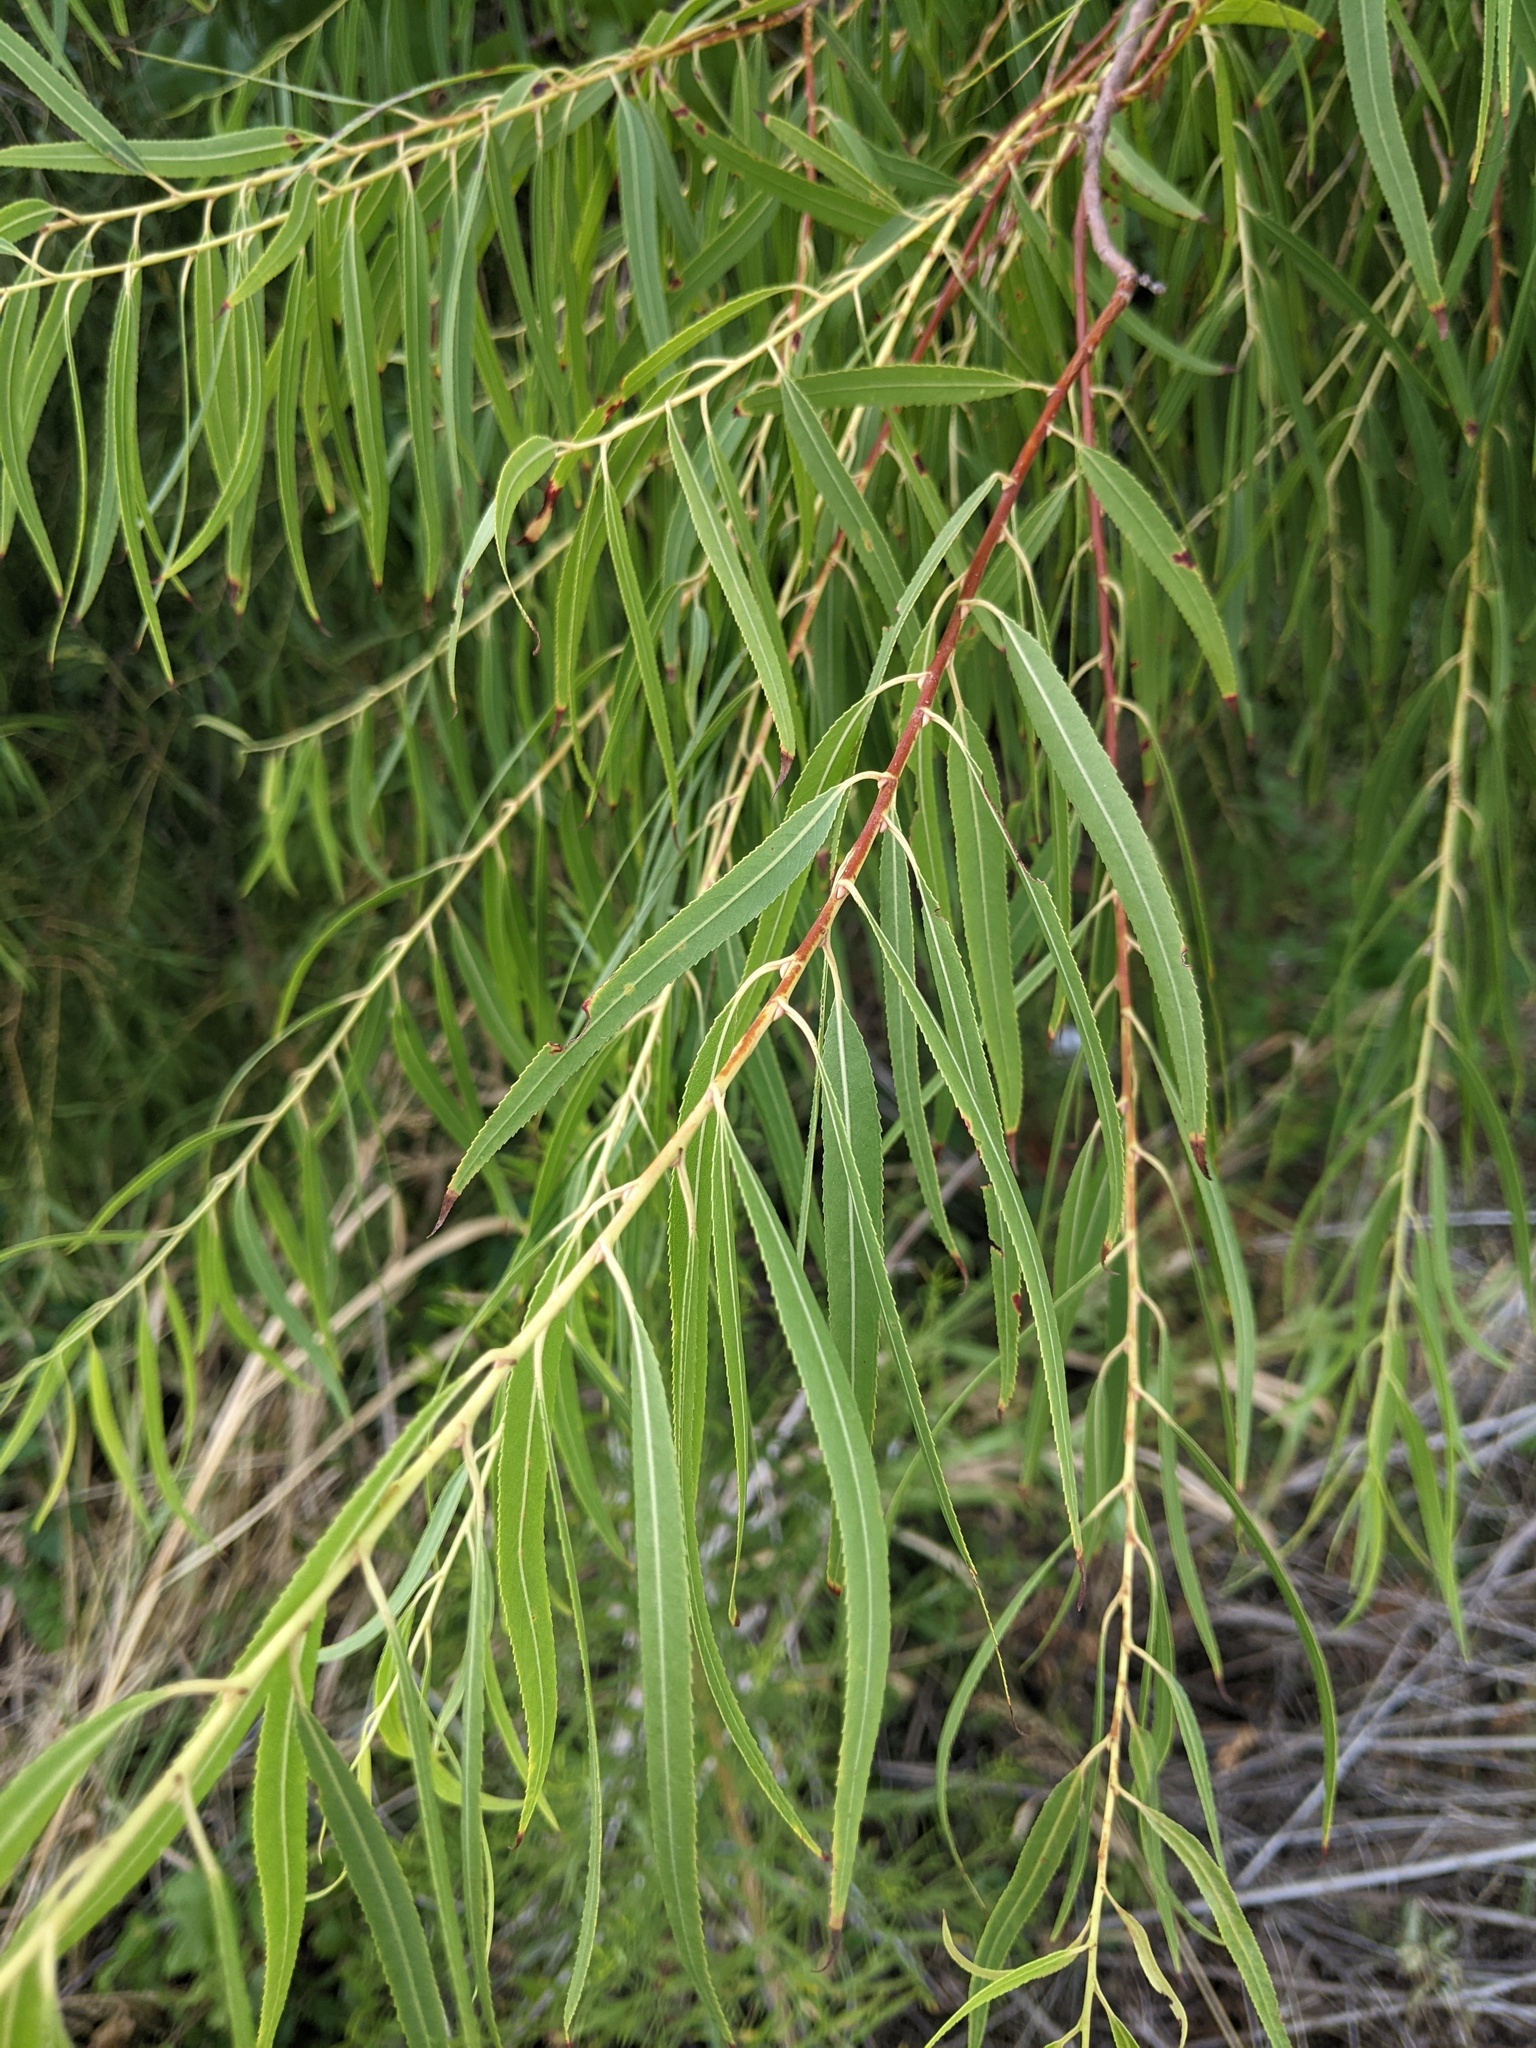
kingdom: Plantae
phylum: Tracheophyta
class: Magnoliopsida
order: Malpighiales
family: Salicaceae
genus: Salix
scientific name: Salix nigra
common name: Black willow
